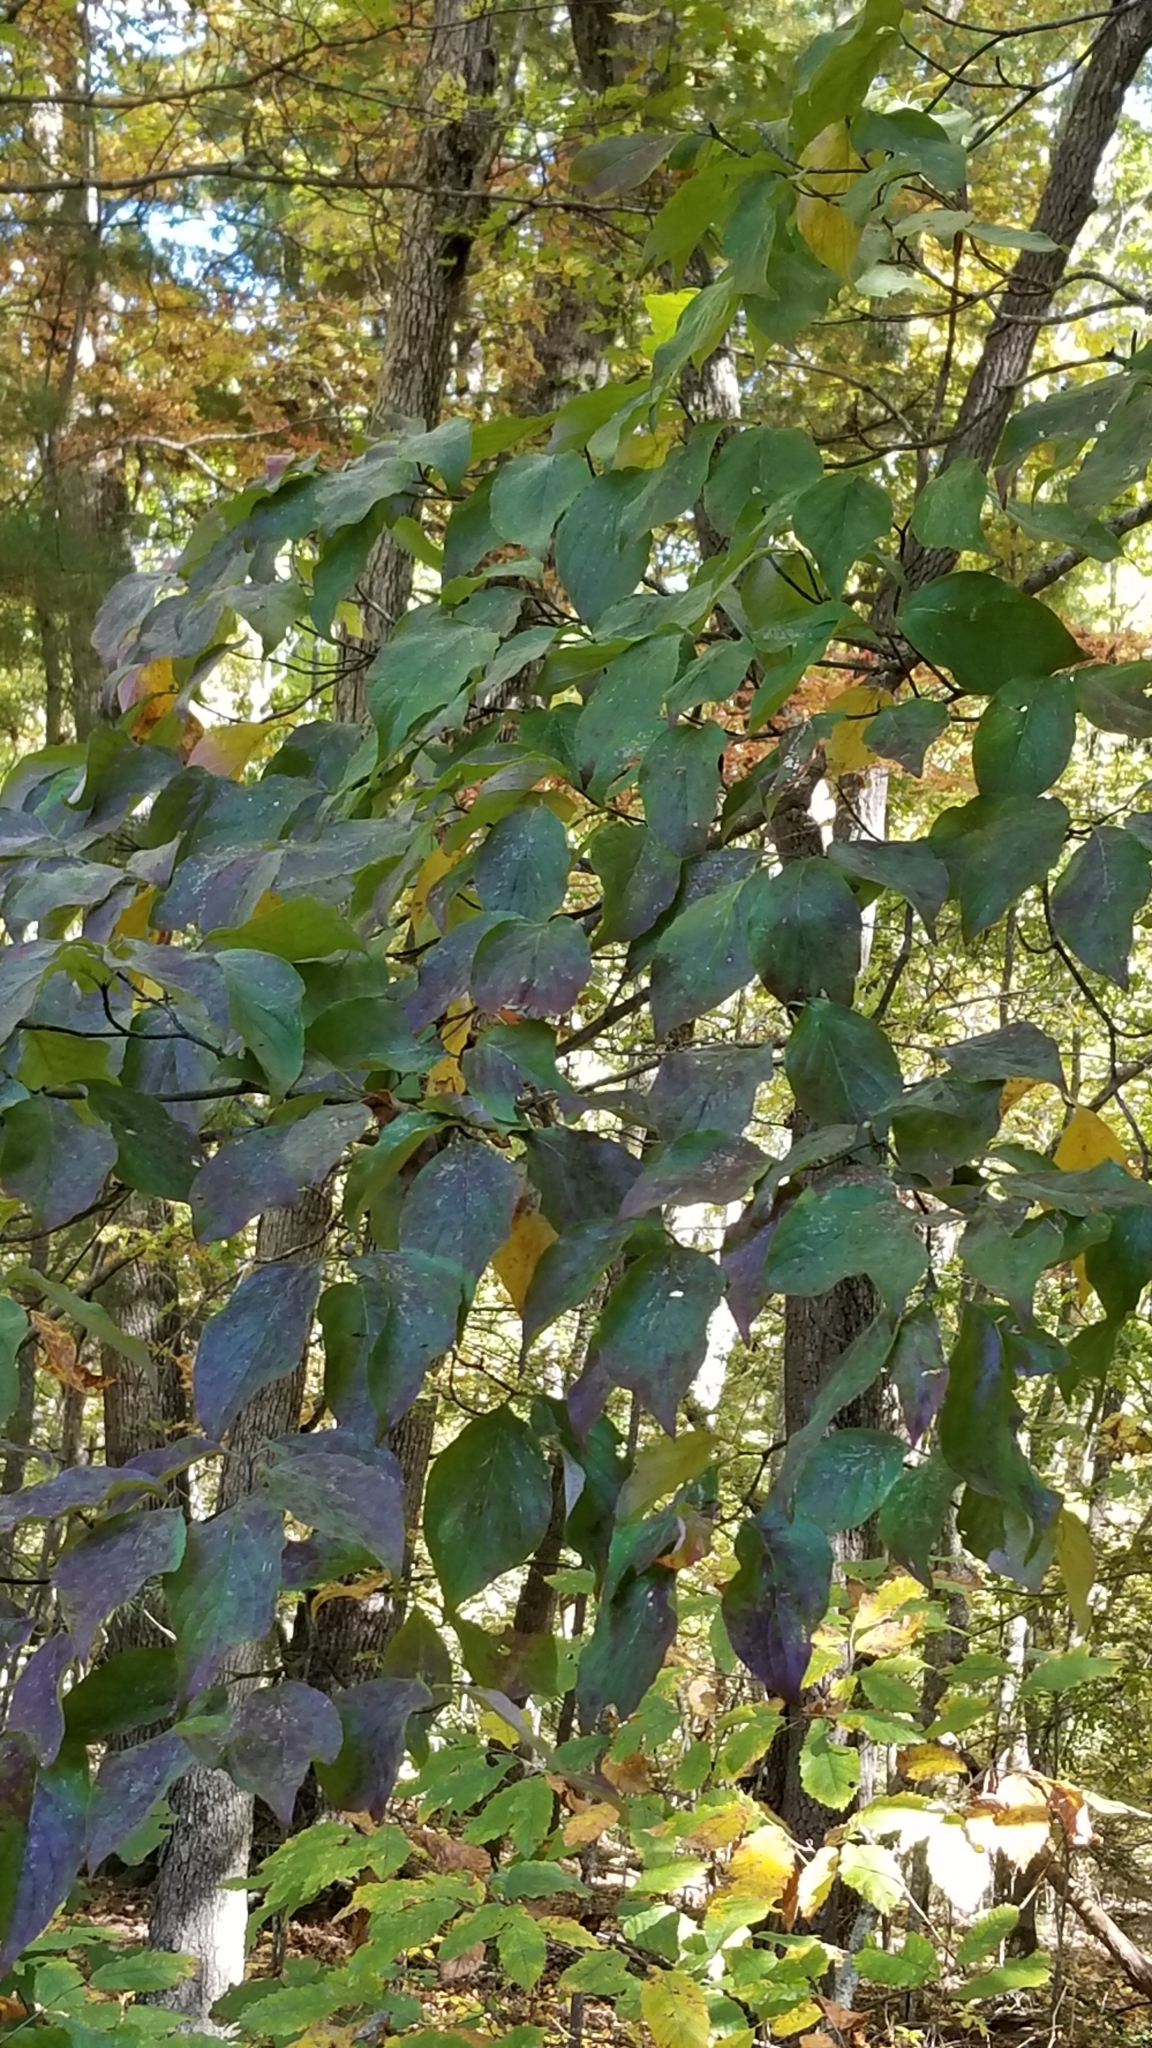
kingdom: Plantae
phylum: Tracheophyta
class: Magnoliopsida
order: Cornales
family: Cornaceae
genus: Cornus
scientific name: Cornus florida
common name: Flowering dogwood
